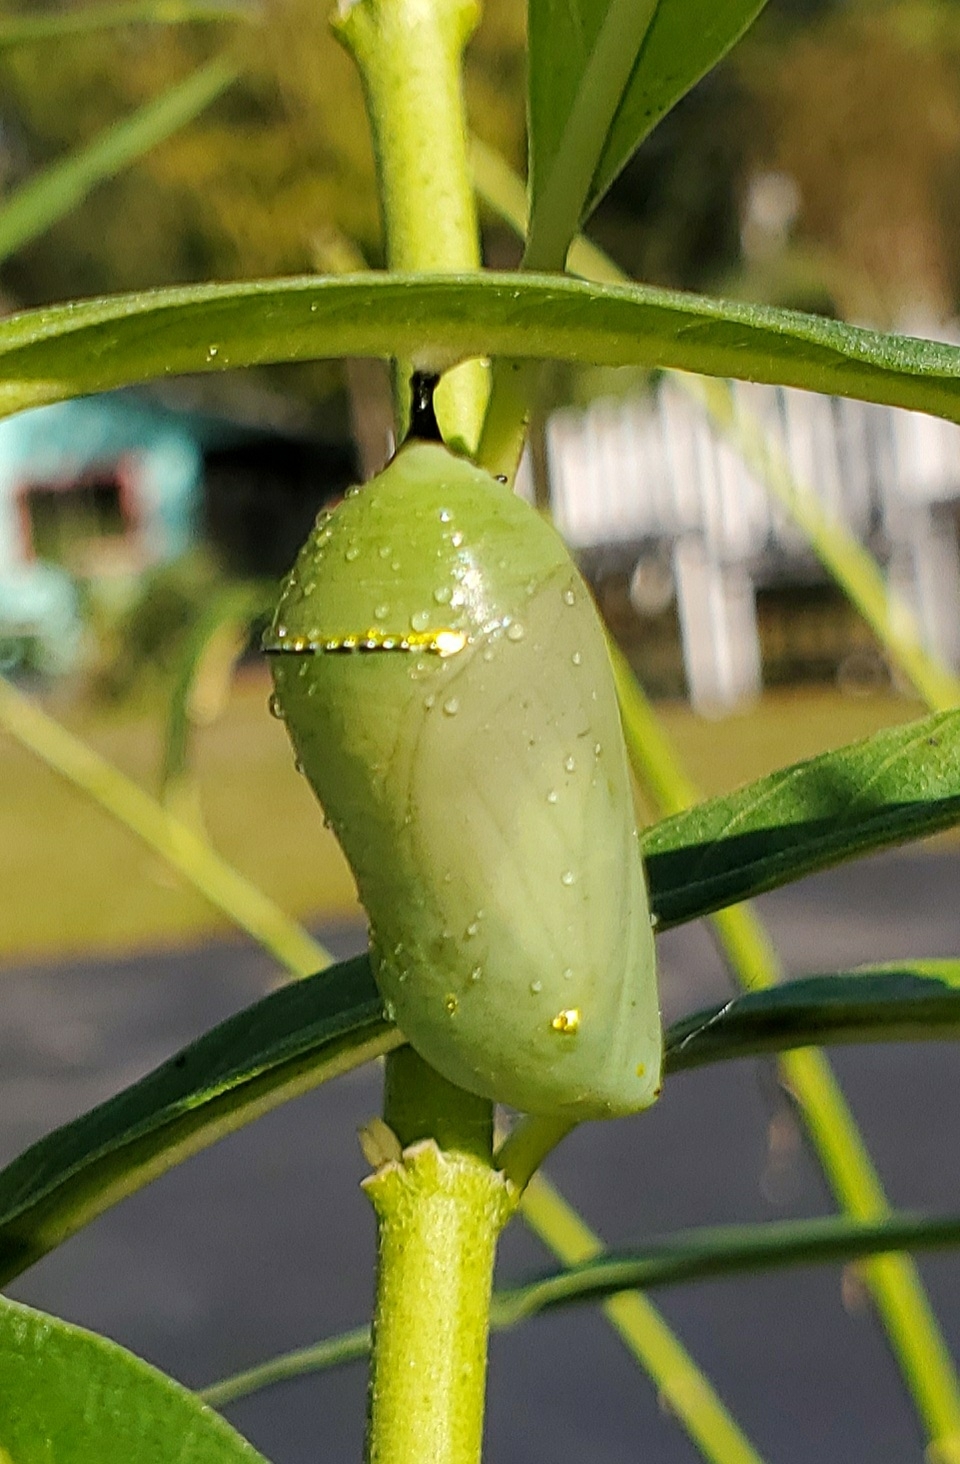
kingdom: Animalia
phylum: Arthropoda
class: Insecta
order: Lepidoptera
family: Nymphalidae
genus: Danaus
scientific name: Danaus plexippus
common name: Monarch
